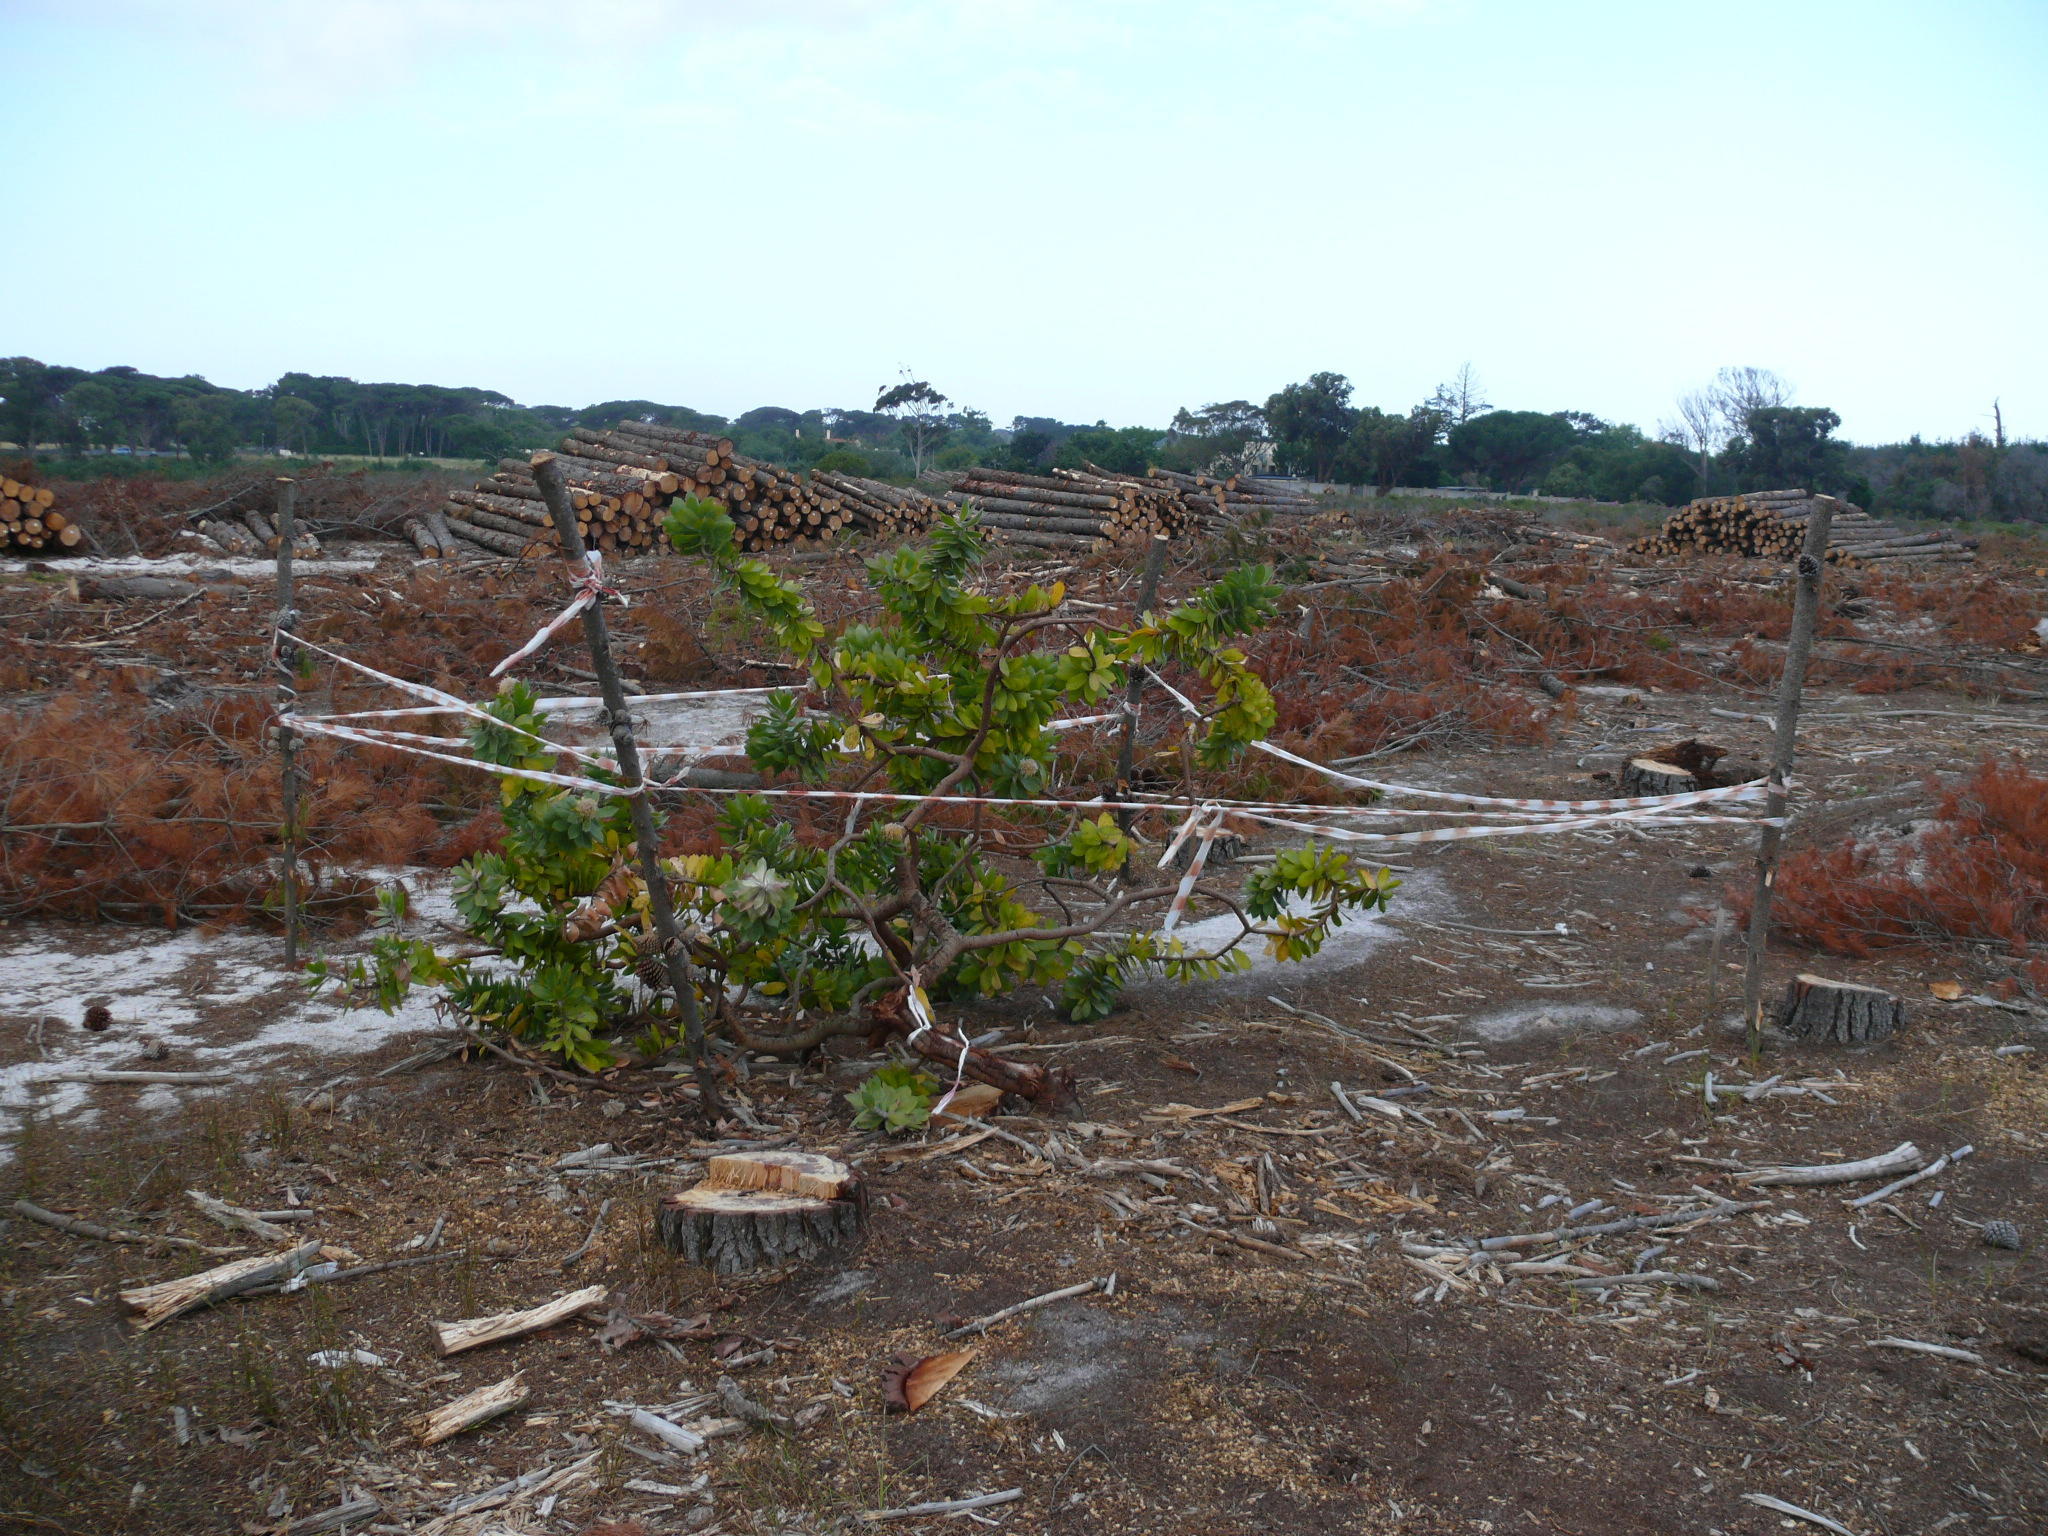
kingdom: Plantae
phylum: Tracheophyta
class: Magnoliopsida
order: Proteales
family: Proteaceae
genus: Leucospermum
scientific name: Leucospermum conocarpodendron
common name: Tree pincushion
